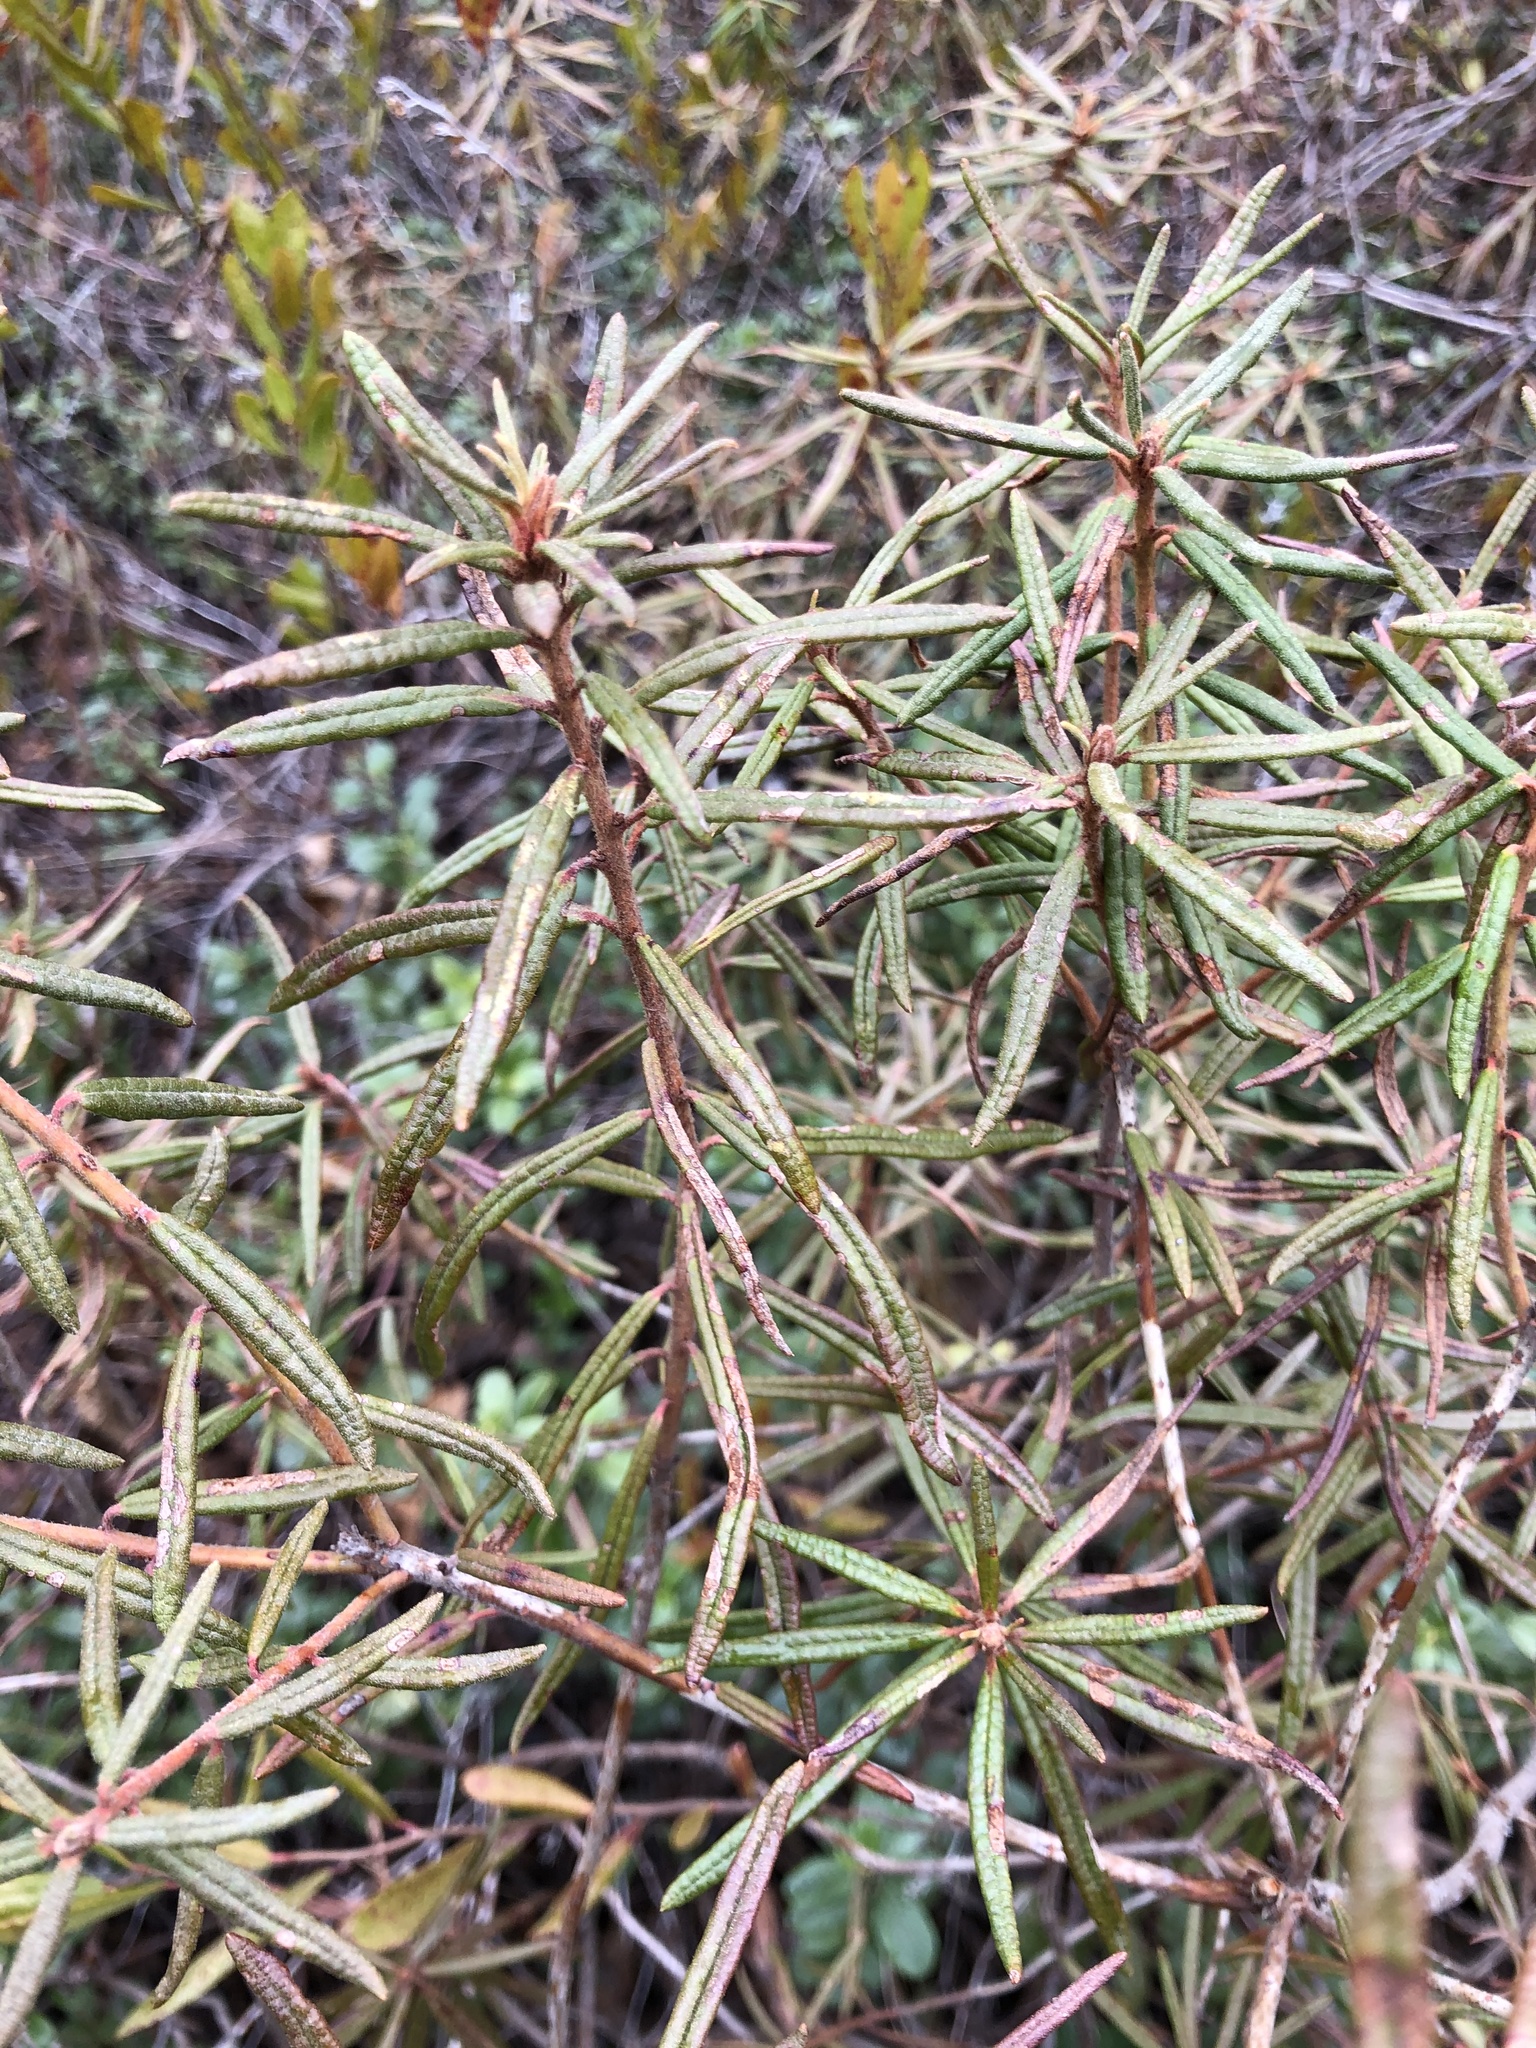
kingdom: Plantae
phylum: Tracheophyta
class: Magnoliopsida
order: Ericales
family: Ericaceae
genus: Rhododendron
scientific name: Rhododendron tomentosum
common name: Marsh labrador tea
